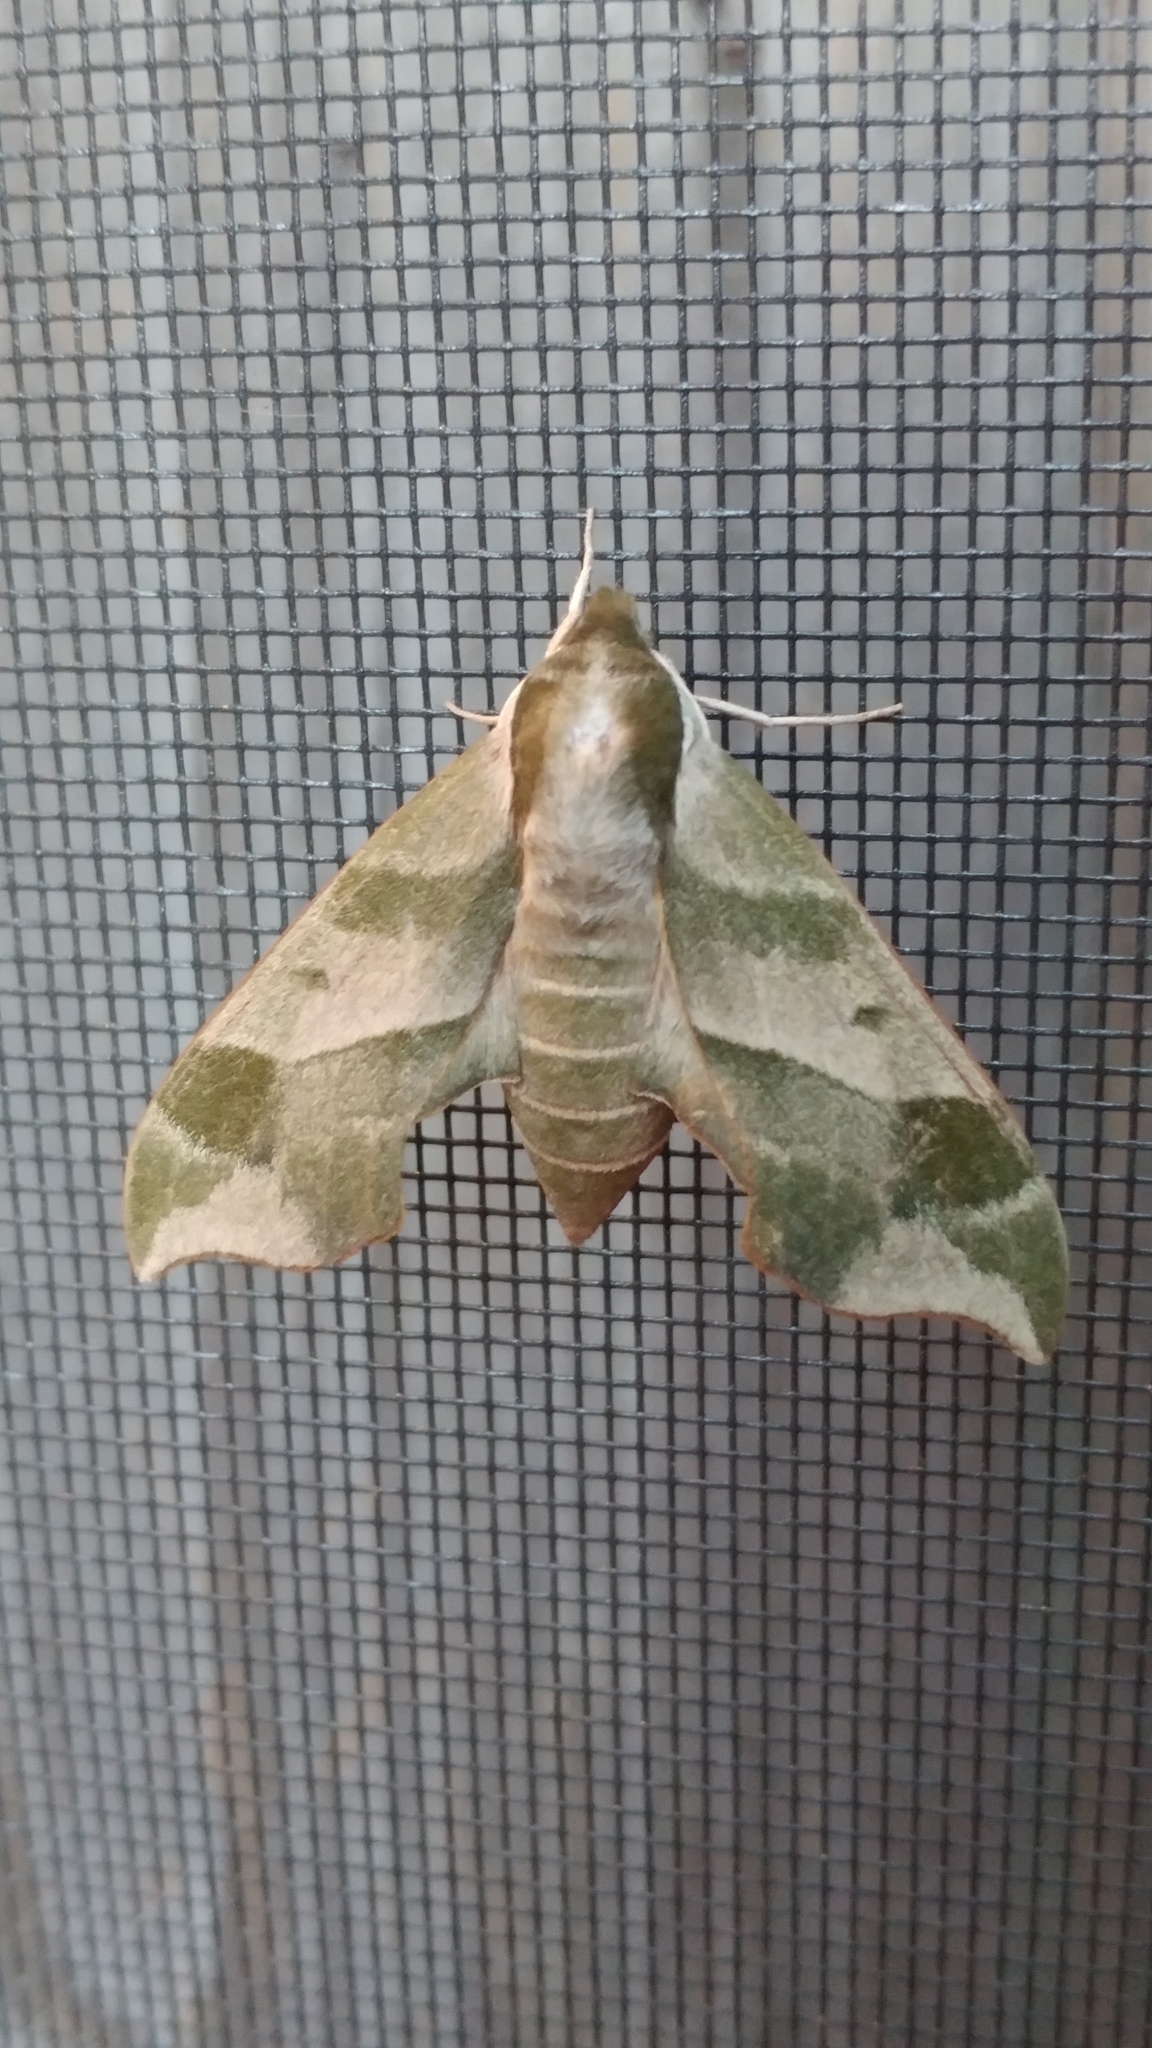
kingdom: Animalia
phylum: Arthropoda
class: Insecta
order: Lepidoptera
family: Sphingidae
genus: Darapsa
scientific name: Darapsa myron
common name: Hog sphinx
